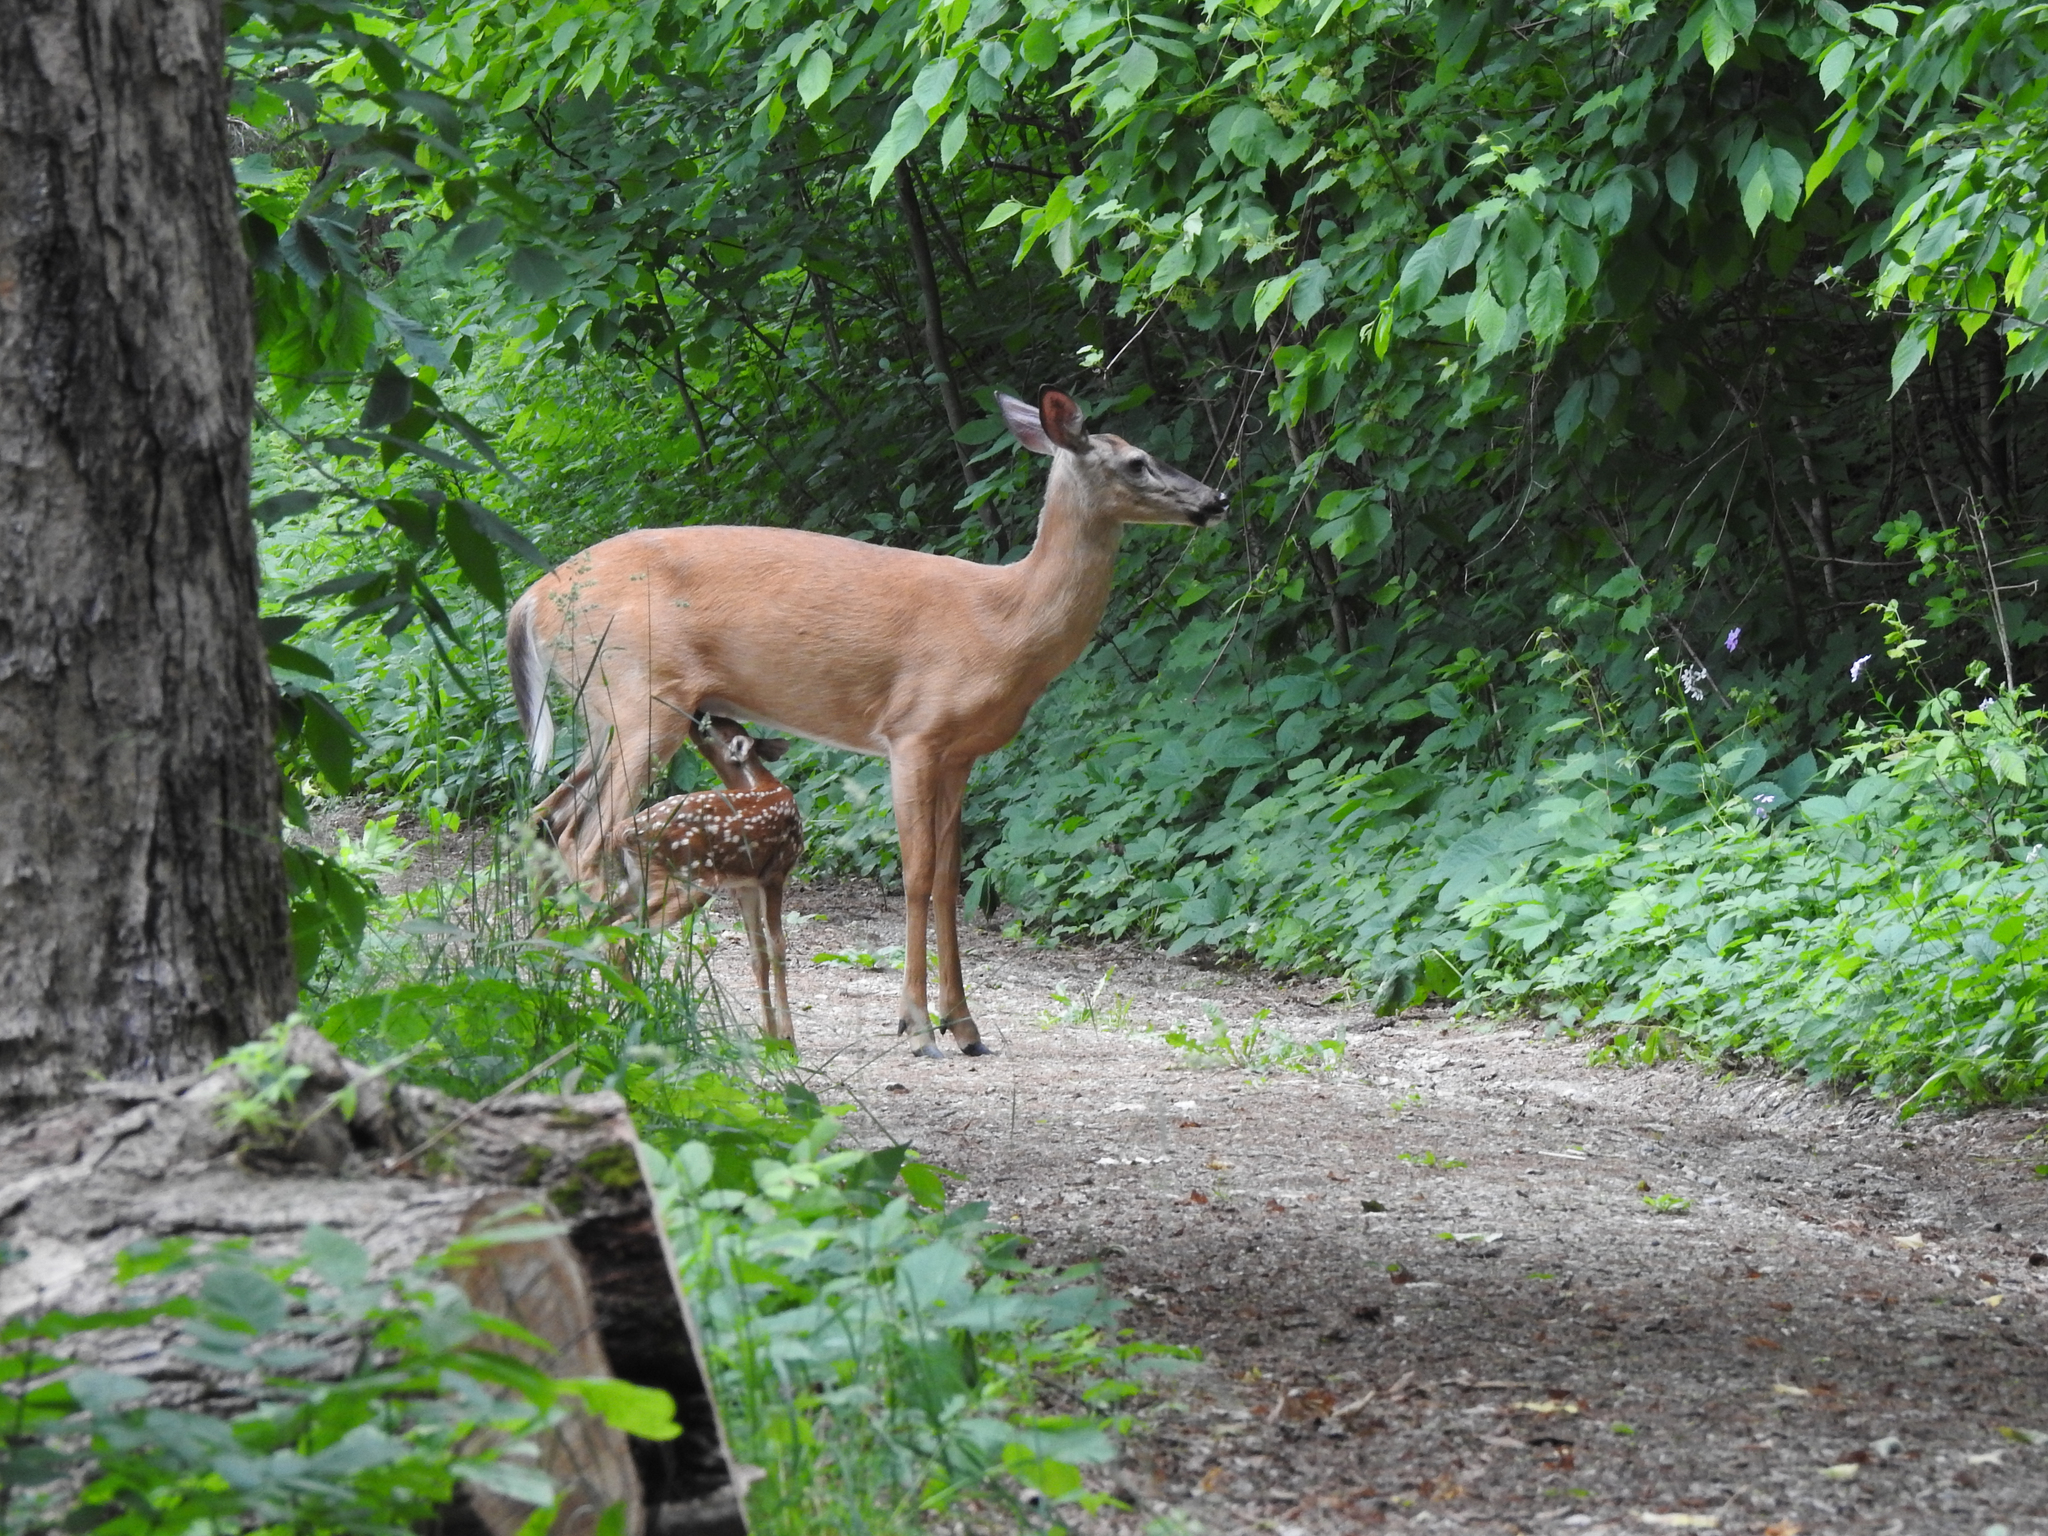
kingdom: Animalia
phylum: Chordata
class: Mammalia
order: Artiodactyla
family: Cervidae
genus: Odocoileus
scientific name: Odocoileus virginianus
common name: White-tailed deer
